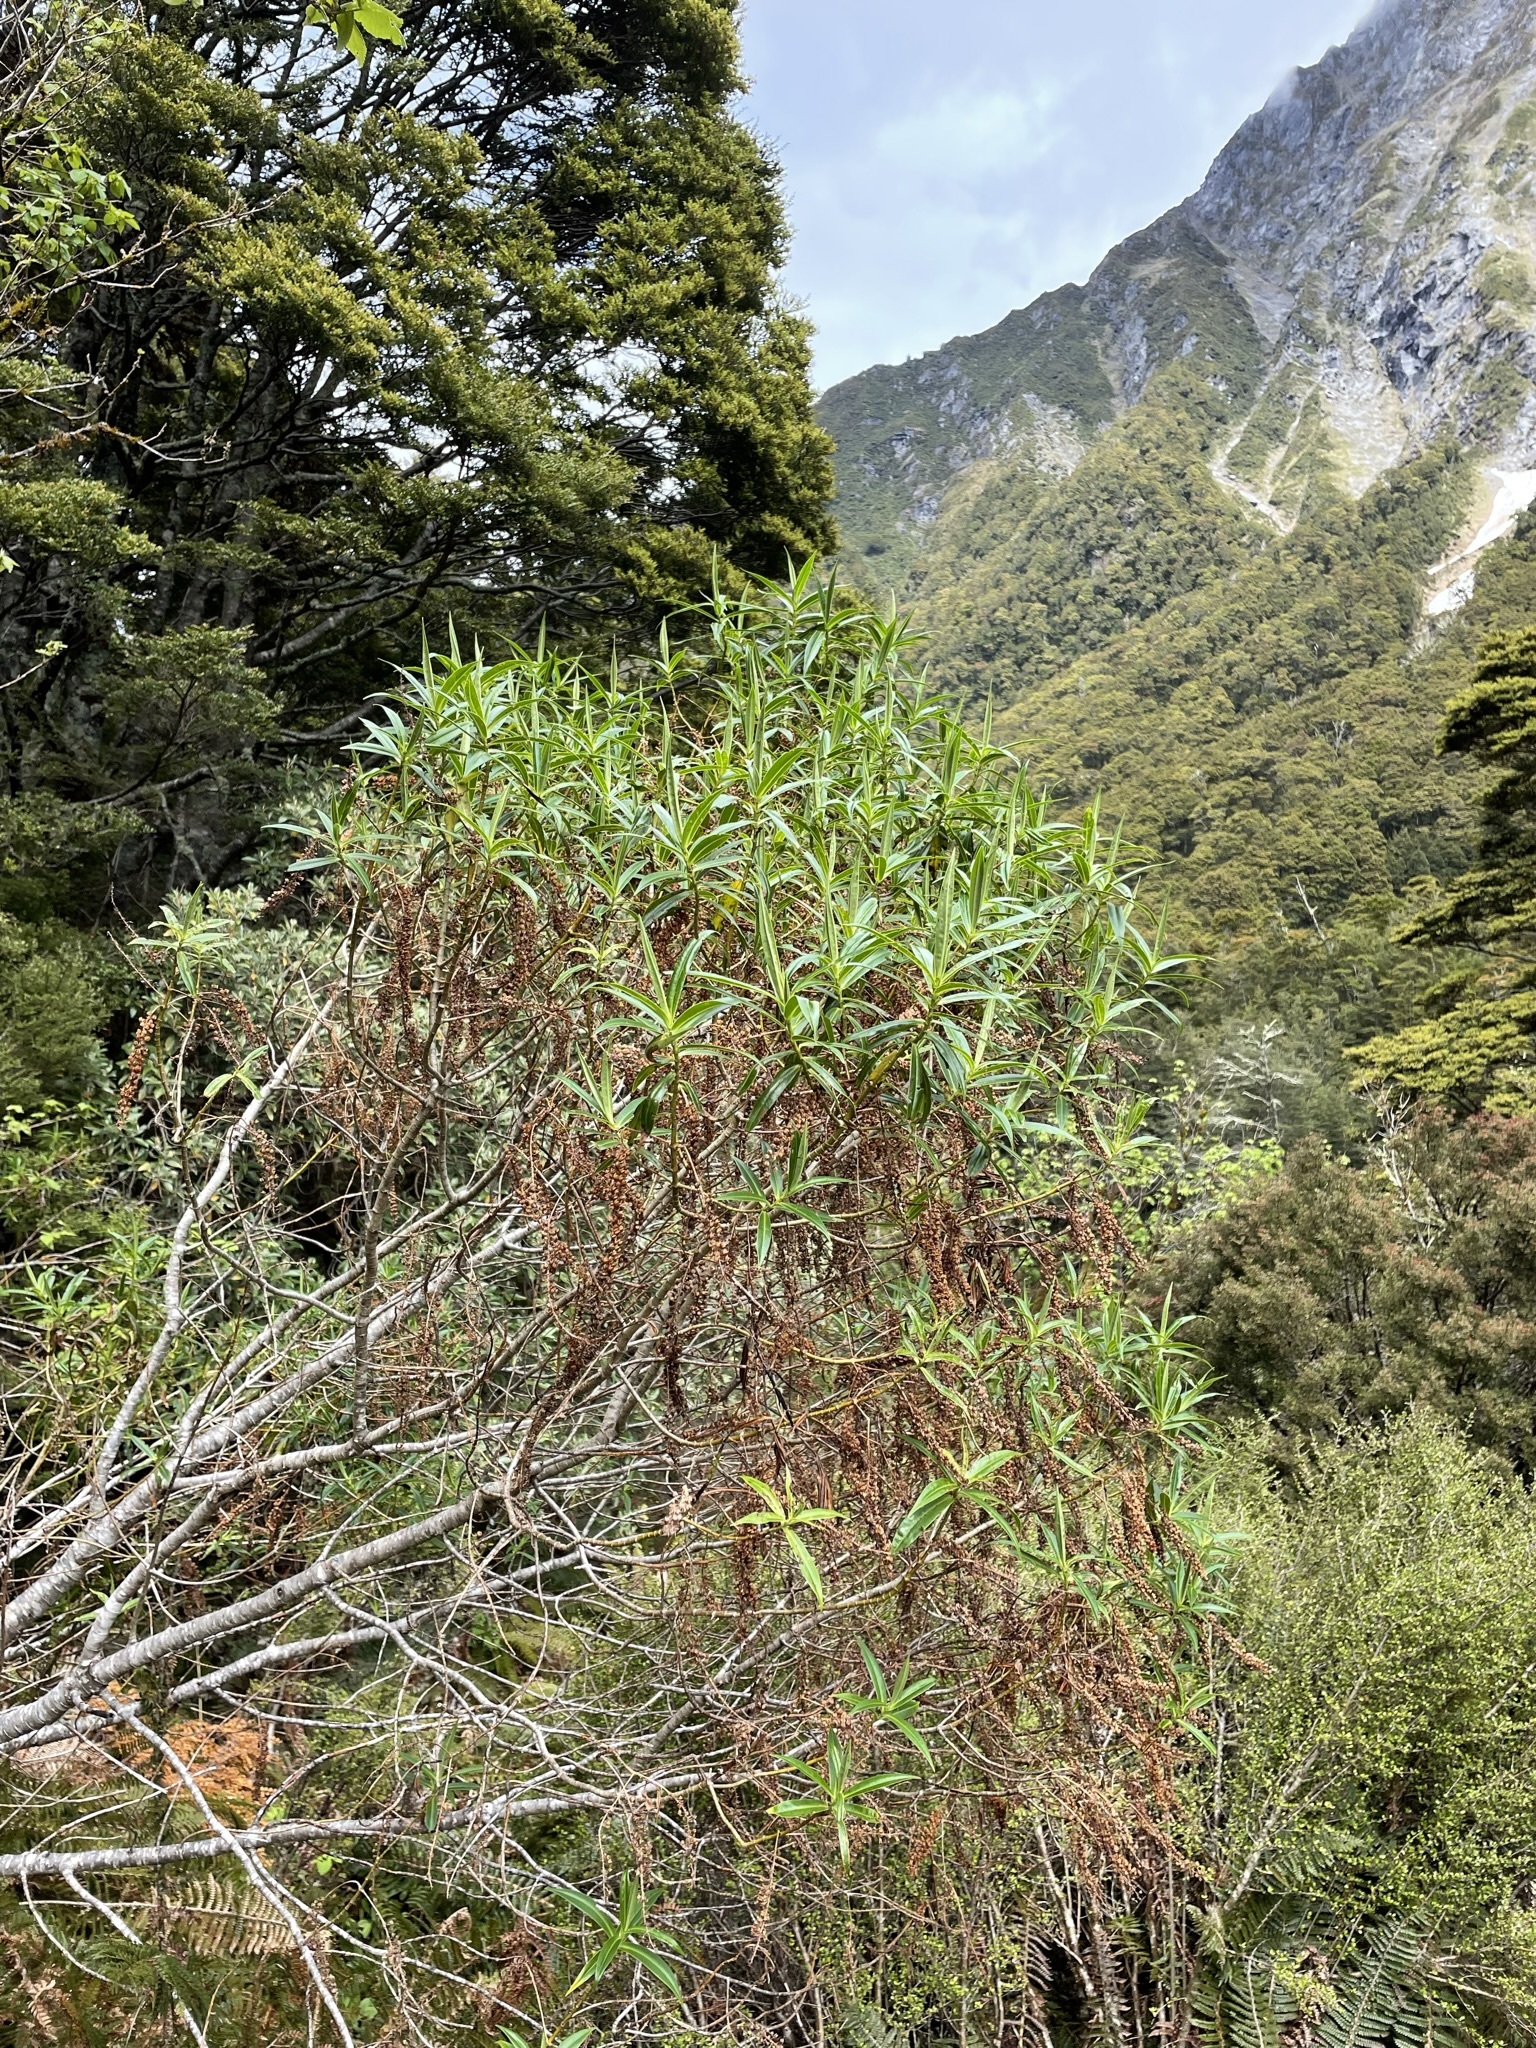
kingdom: Plantae
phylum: Tracheophyta
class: Magnoliopsida
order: Lamiales
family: Plantaginaceae
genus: Veronica
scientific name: Veronica salicifolia
